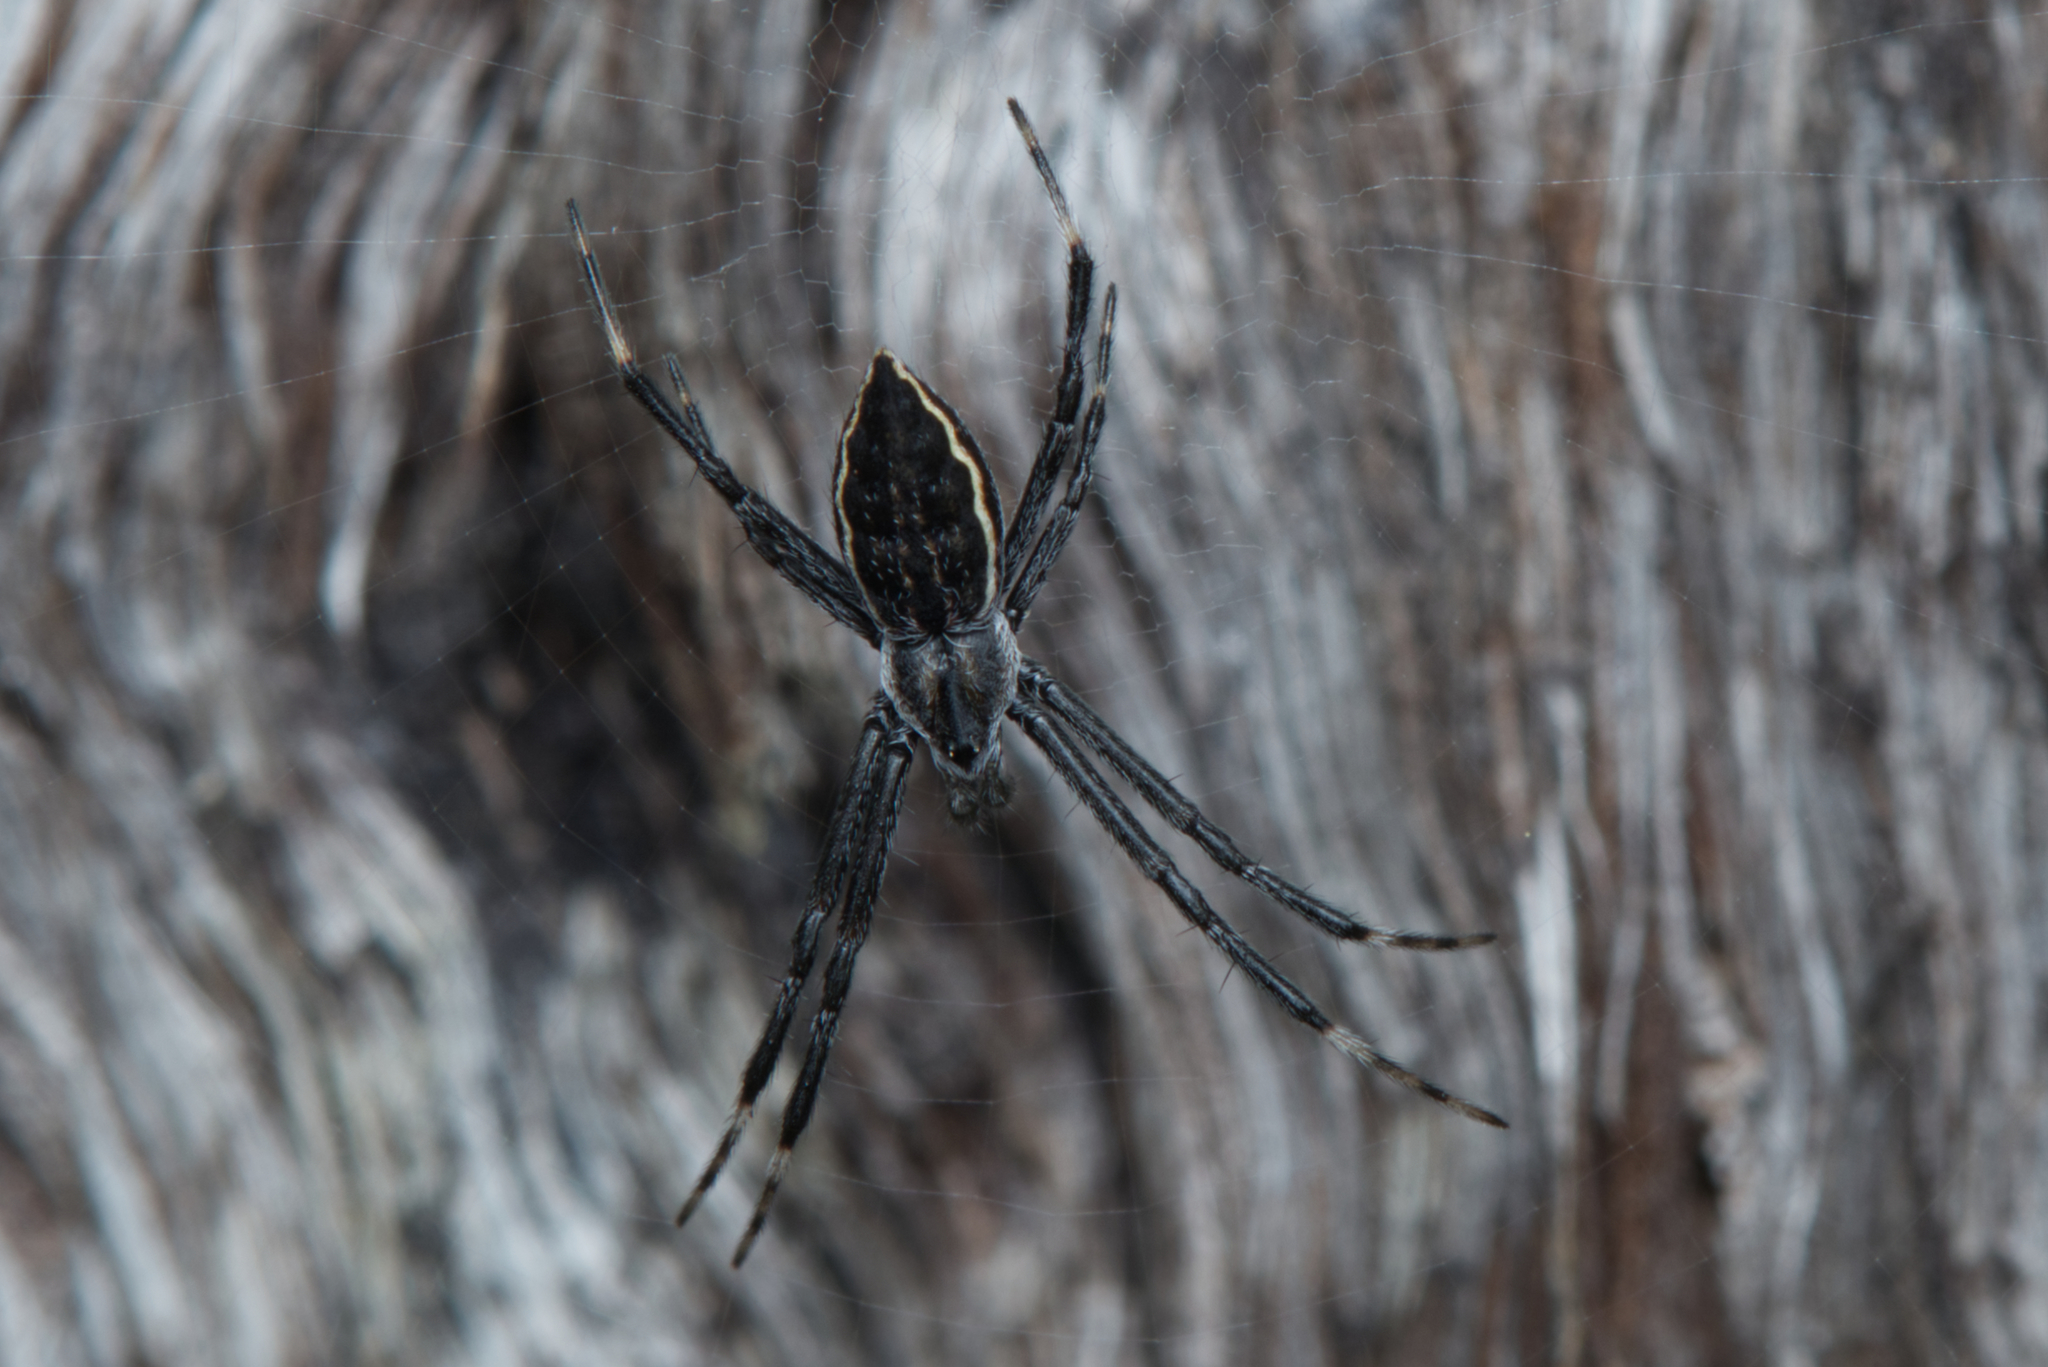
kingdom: Animalia
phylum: Arthropoda
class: Arachnida
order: Araneae
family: Araneidae
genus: Argiope
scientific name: Argiope ocyaloides
